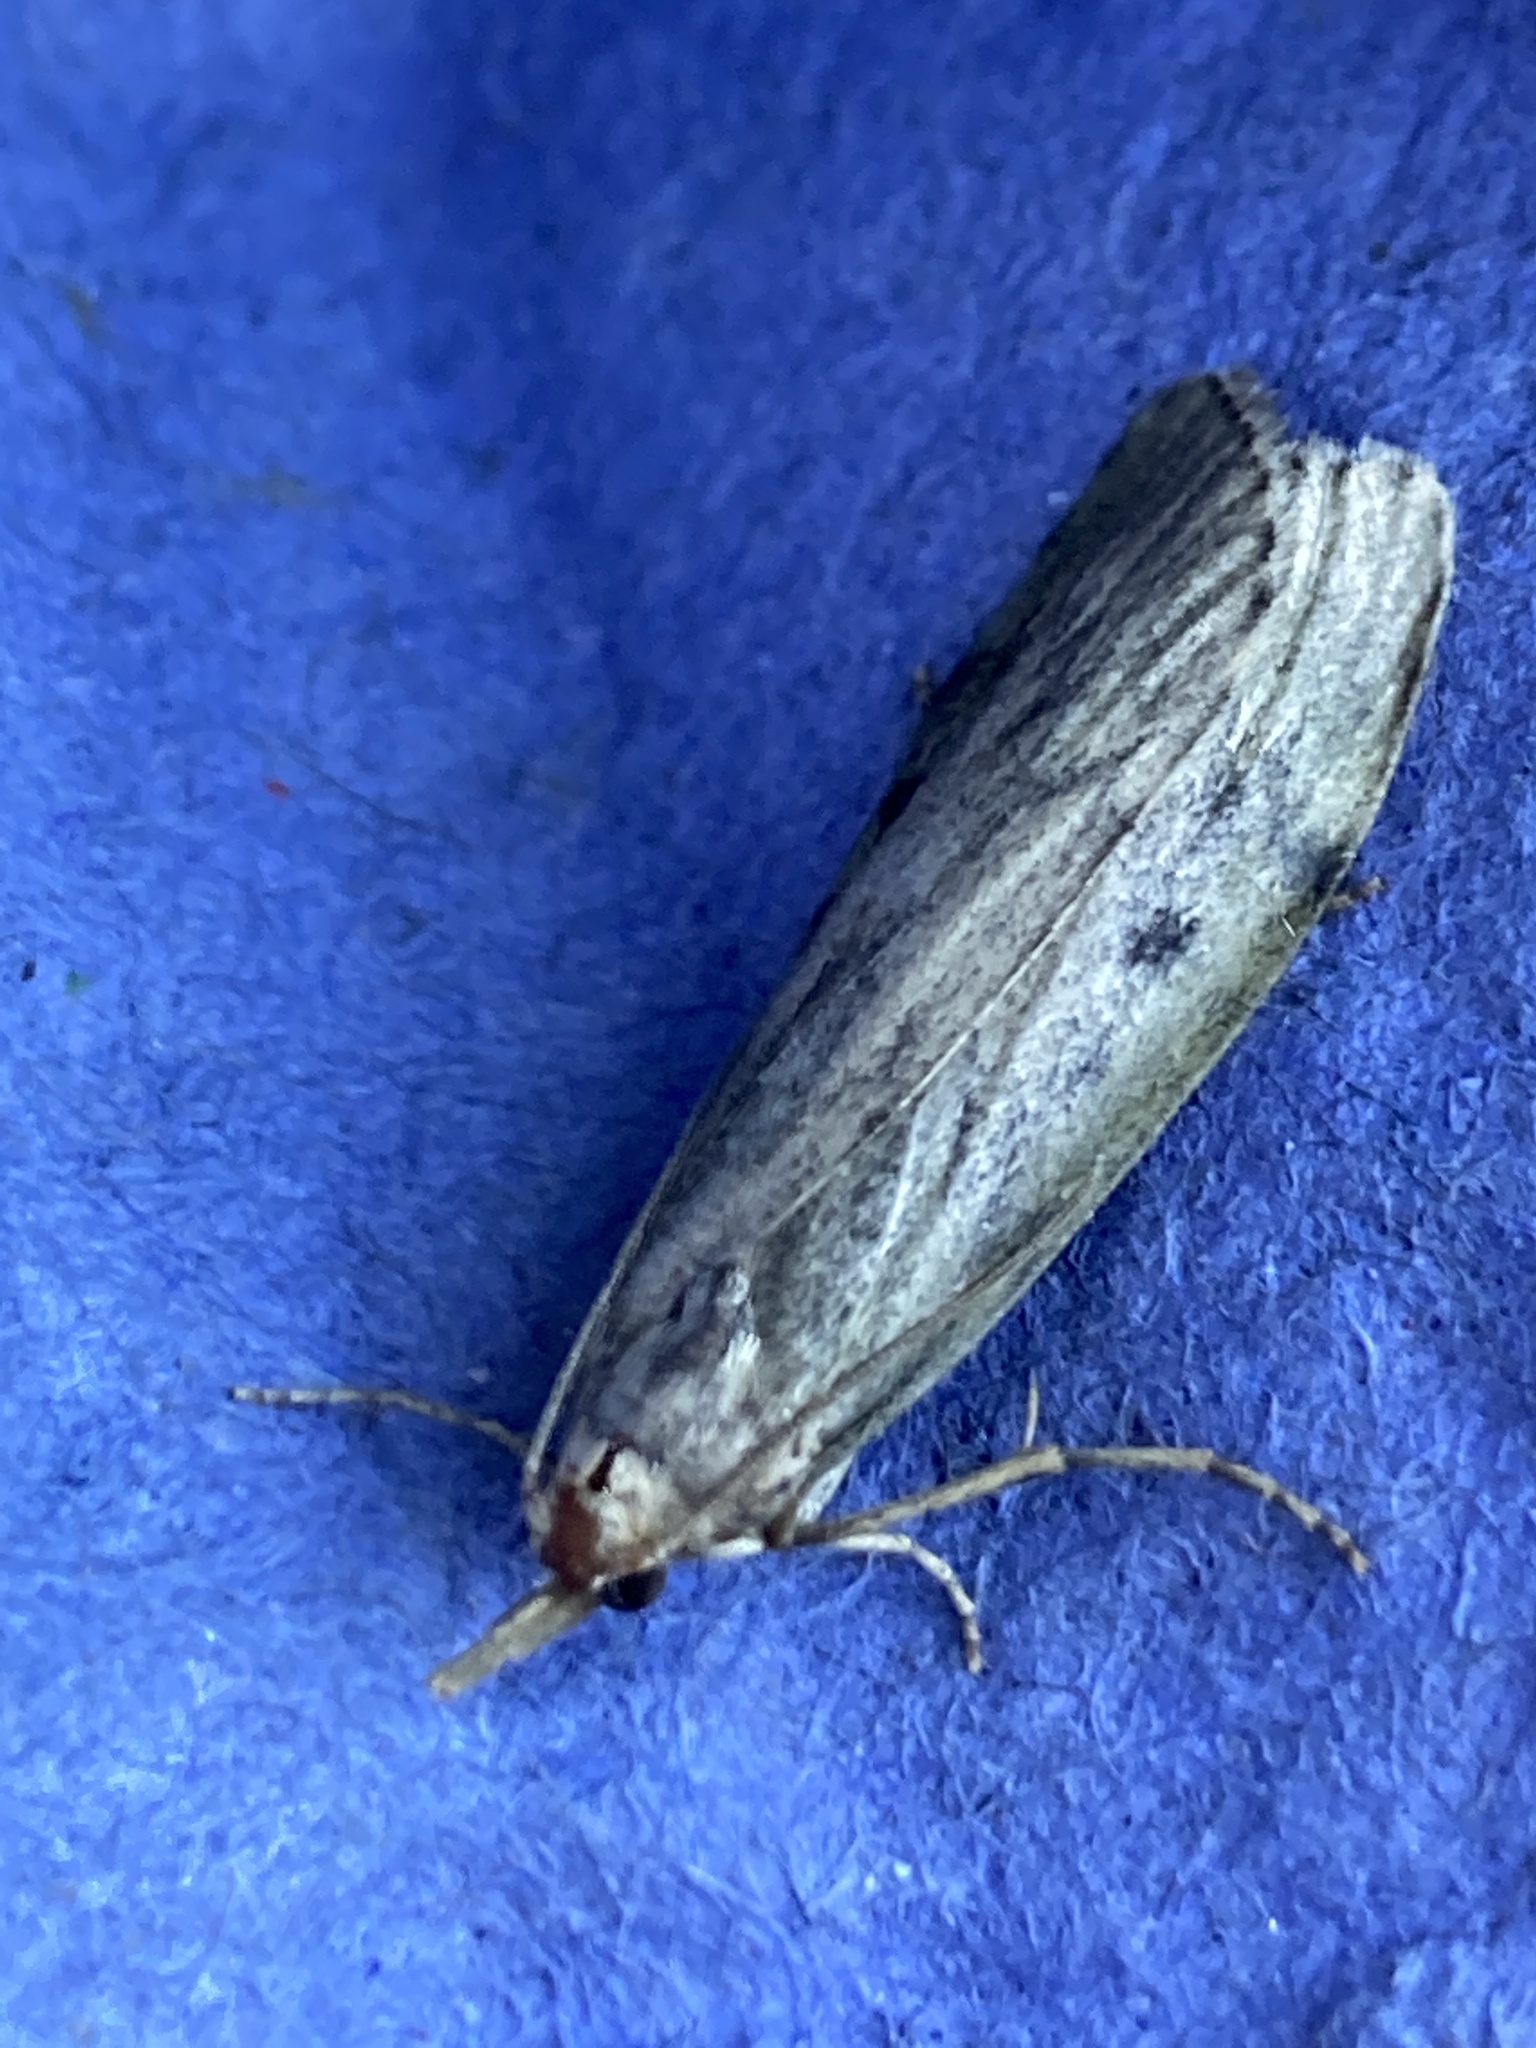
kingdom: Animalia
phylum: Arthropoda
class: Insecta
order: Lepidoptera
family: Pyralidae
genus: Aphomia
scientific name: Aphomia sociella
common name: Bee moth
